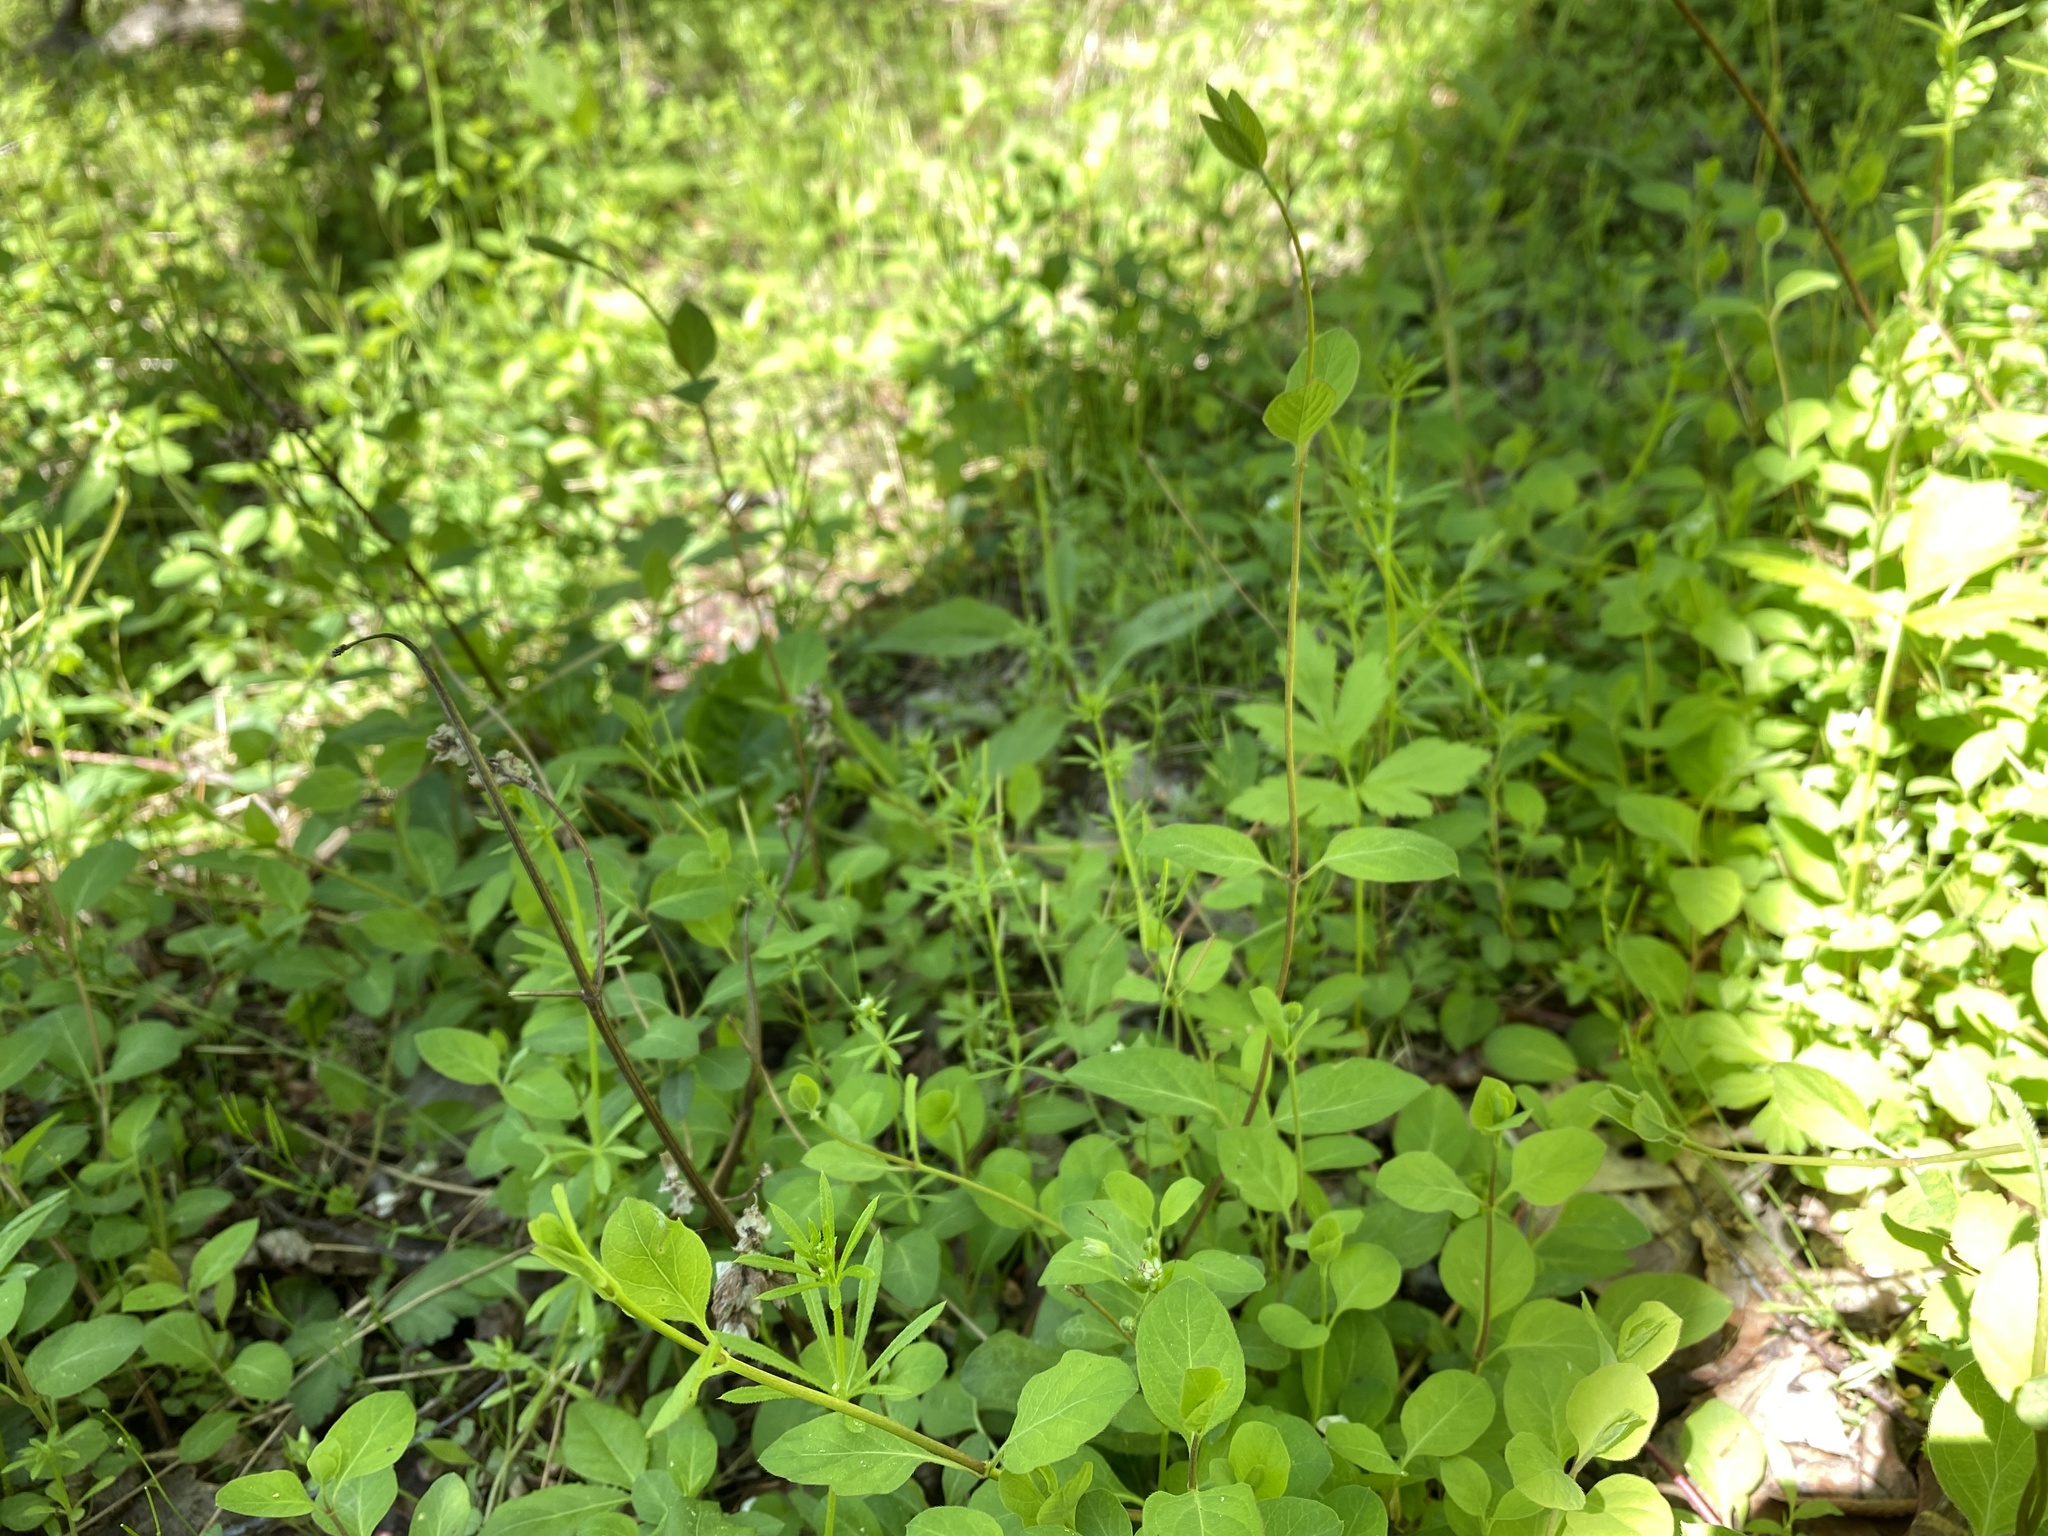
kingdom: Plantae
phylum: Tracheophyta
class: Magnoliopsida
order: Dipsacales
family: Caprifoliaceae
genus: Lonicera
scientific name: Lonicera japonica
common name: Japanese honeysuckle
